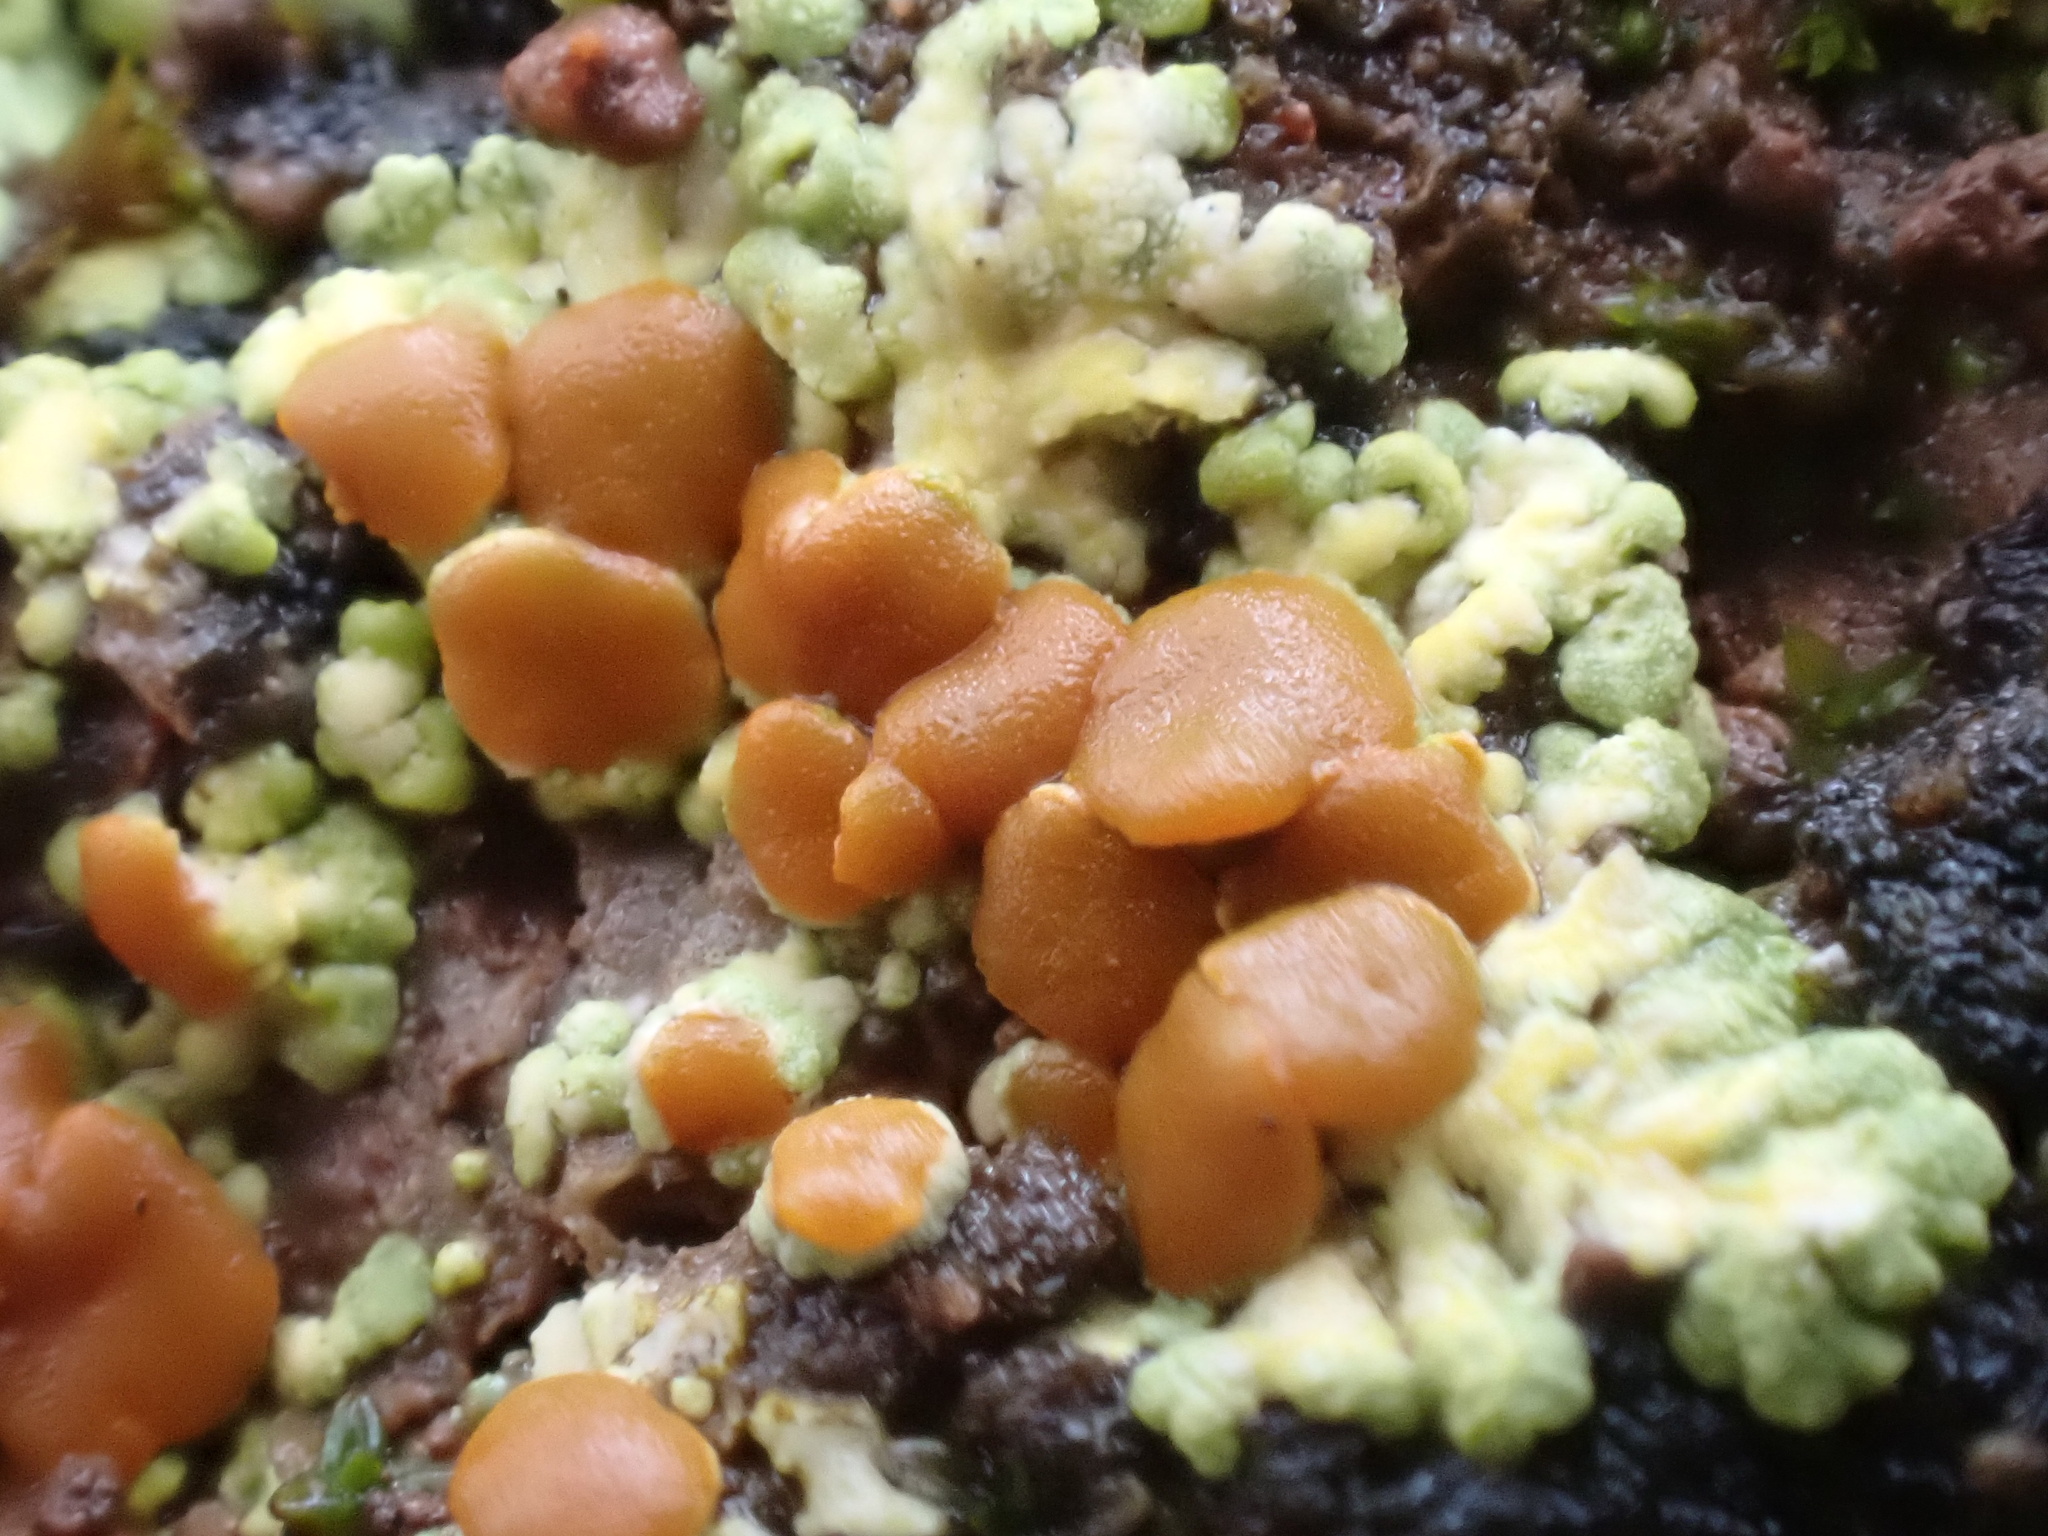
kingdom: Fungi
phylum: Ascomycota
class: Lecanoromycetes
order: Teloschistales
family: Teloschistaceae
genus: Gyalolechia
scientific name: Gyalolechia fulgens
